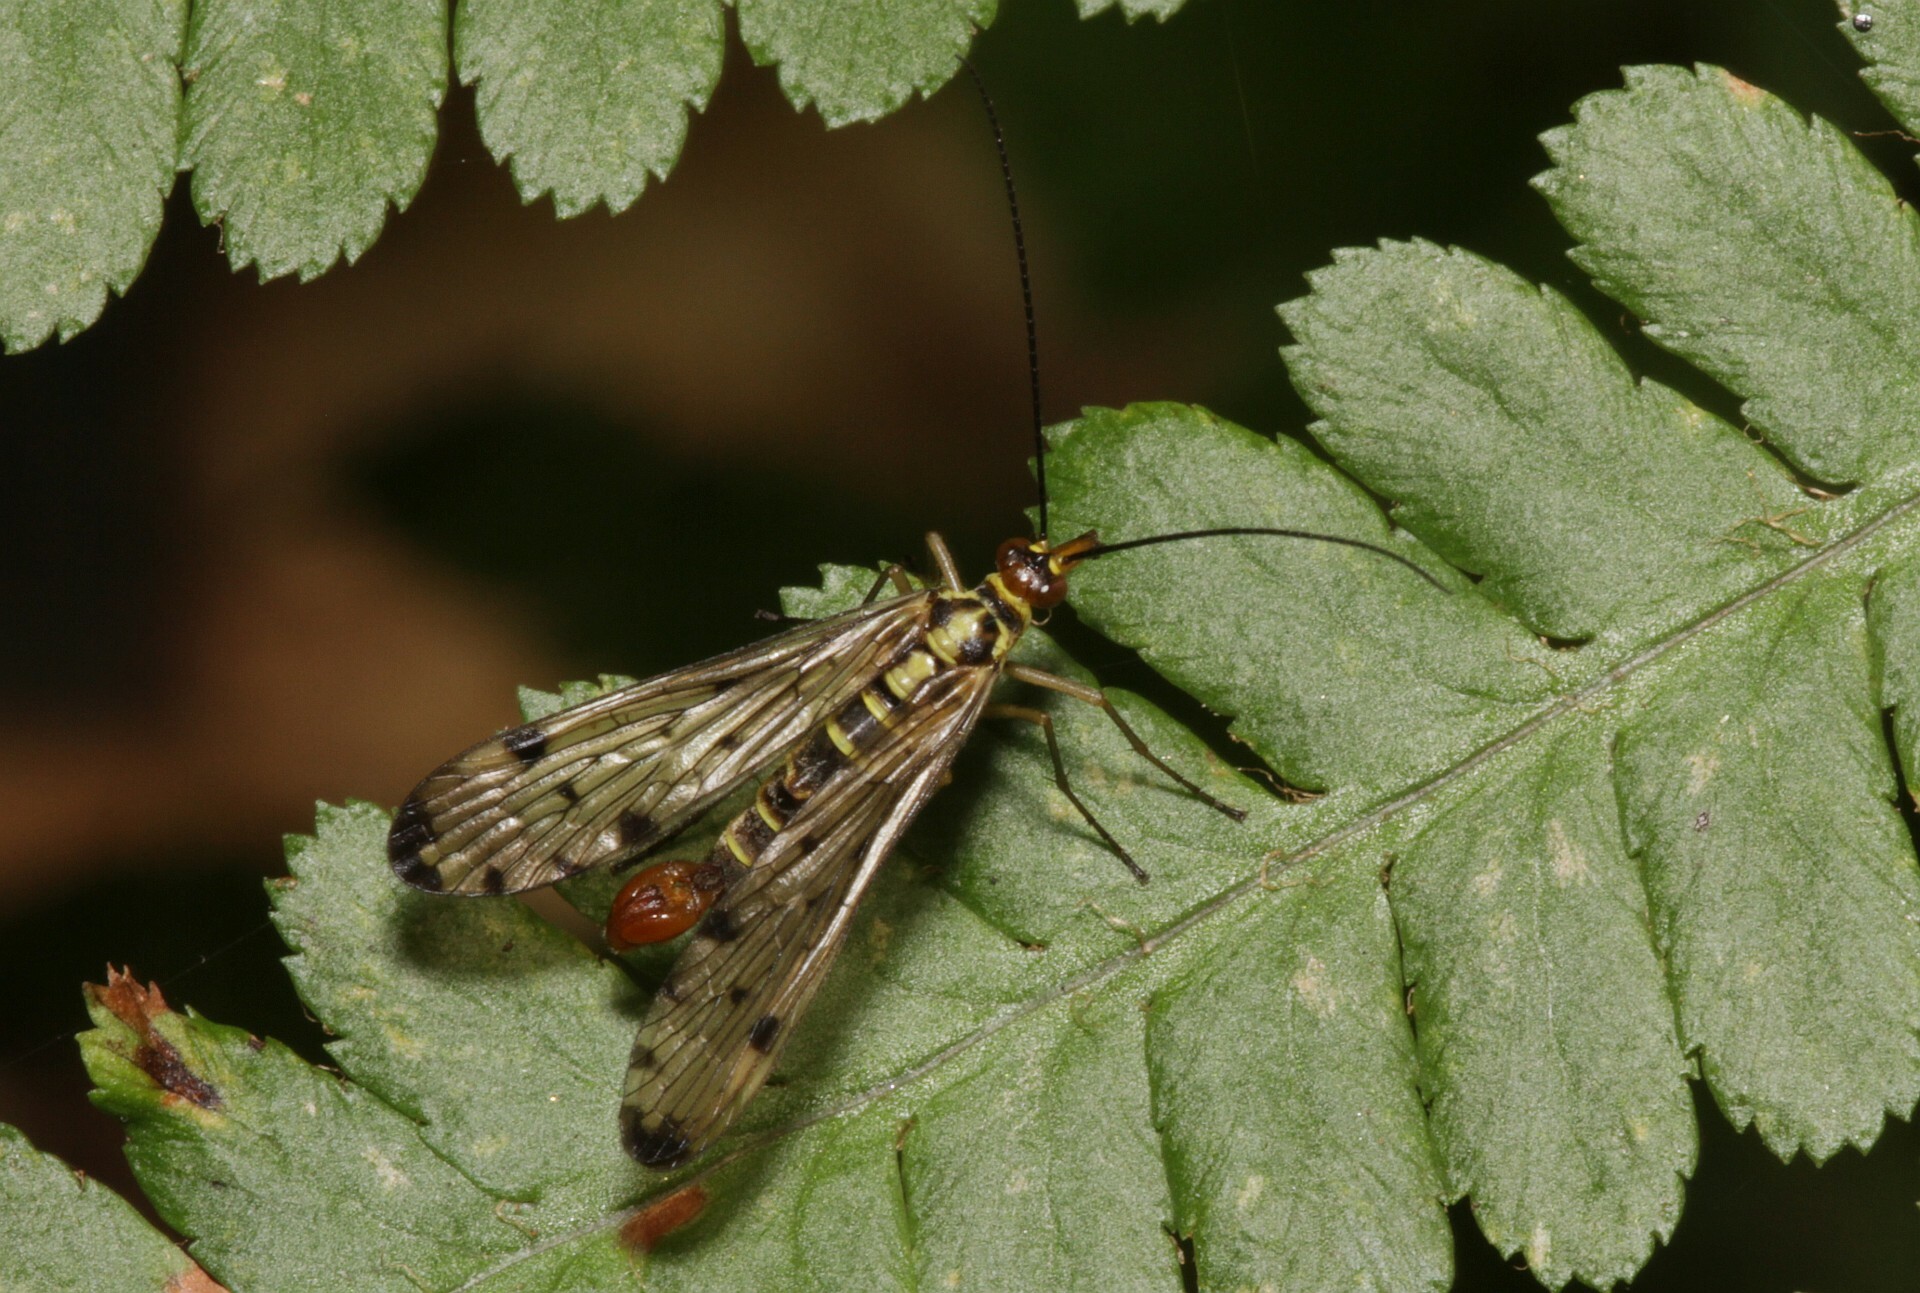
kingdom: Animalia
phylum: Arthropoda
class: Insecta
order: Mecoptera
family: Panorpidae
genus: Panorpa
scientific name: Panorpa germanica
